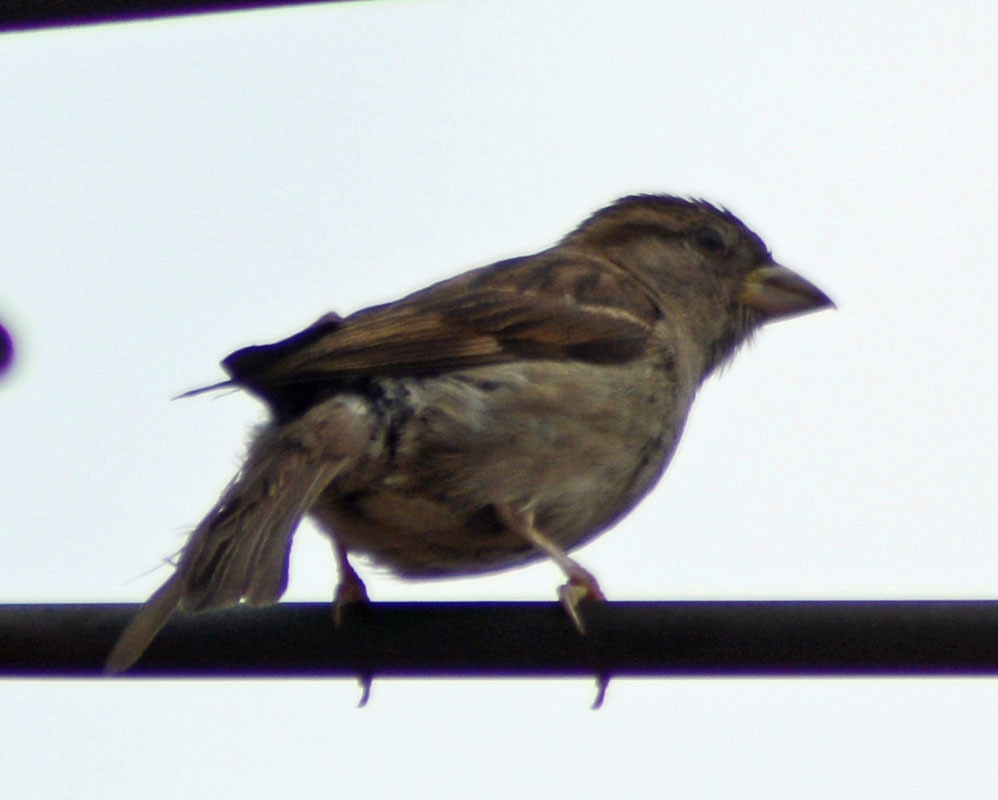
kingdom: Animalia
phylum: Chordata
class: Aves
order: Passeriformes
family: Passeridae
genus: Passer
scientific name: Passer domesticus
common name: House sparrow
